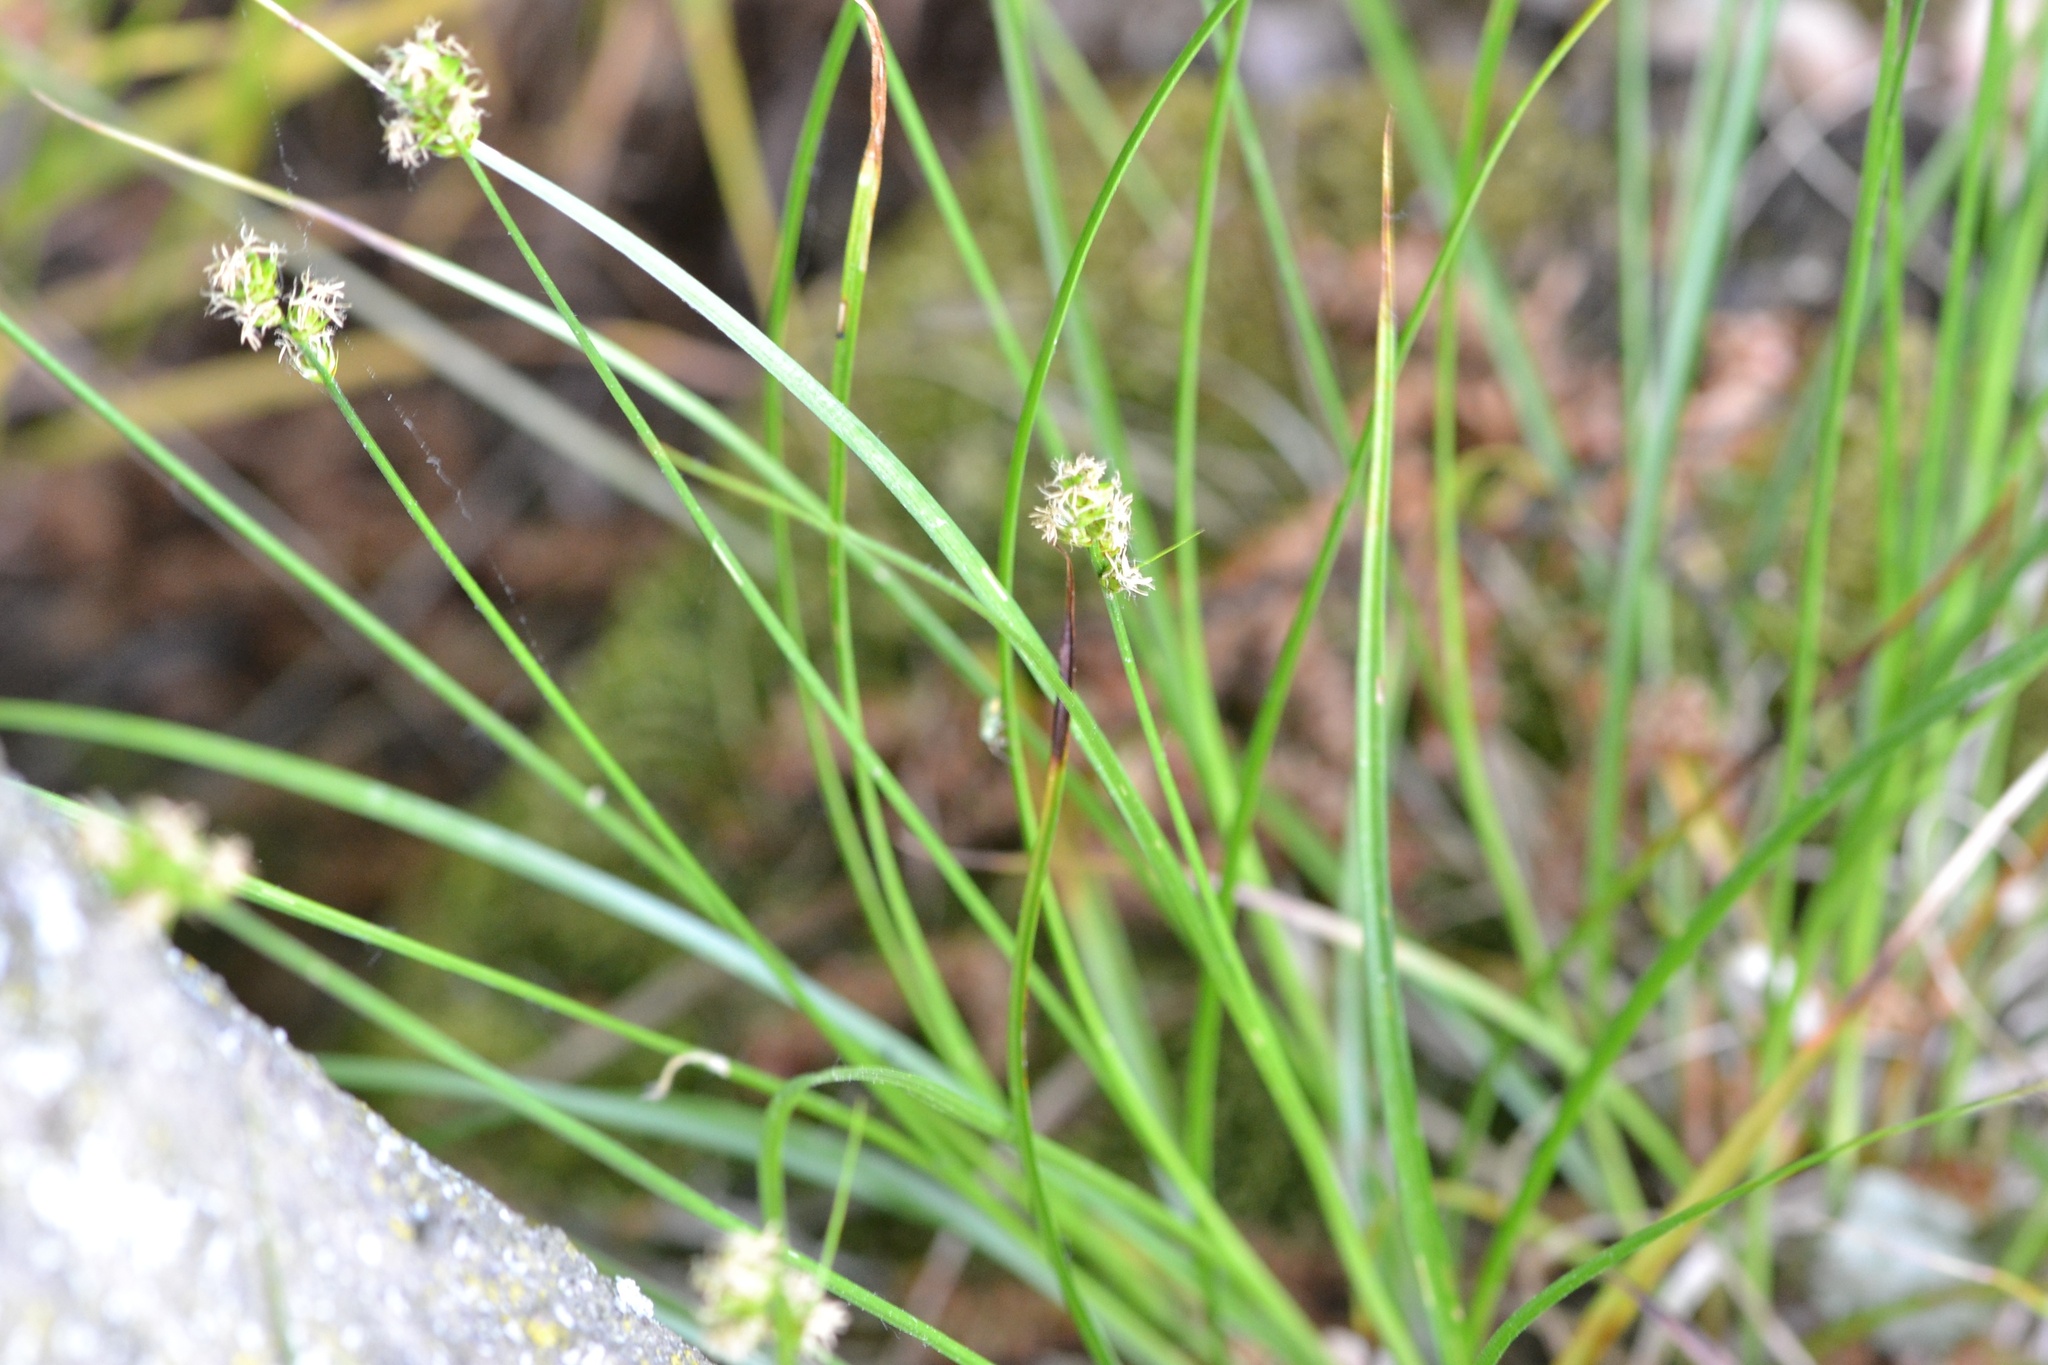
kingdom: Plantae
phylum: Tracheophyta
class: Liliopsida
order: Poales
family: Cyperaceae
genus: Carex
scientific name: Carex spicata
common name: Spiked sedge
